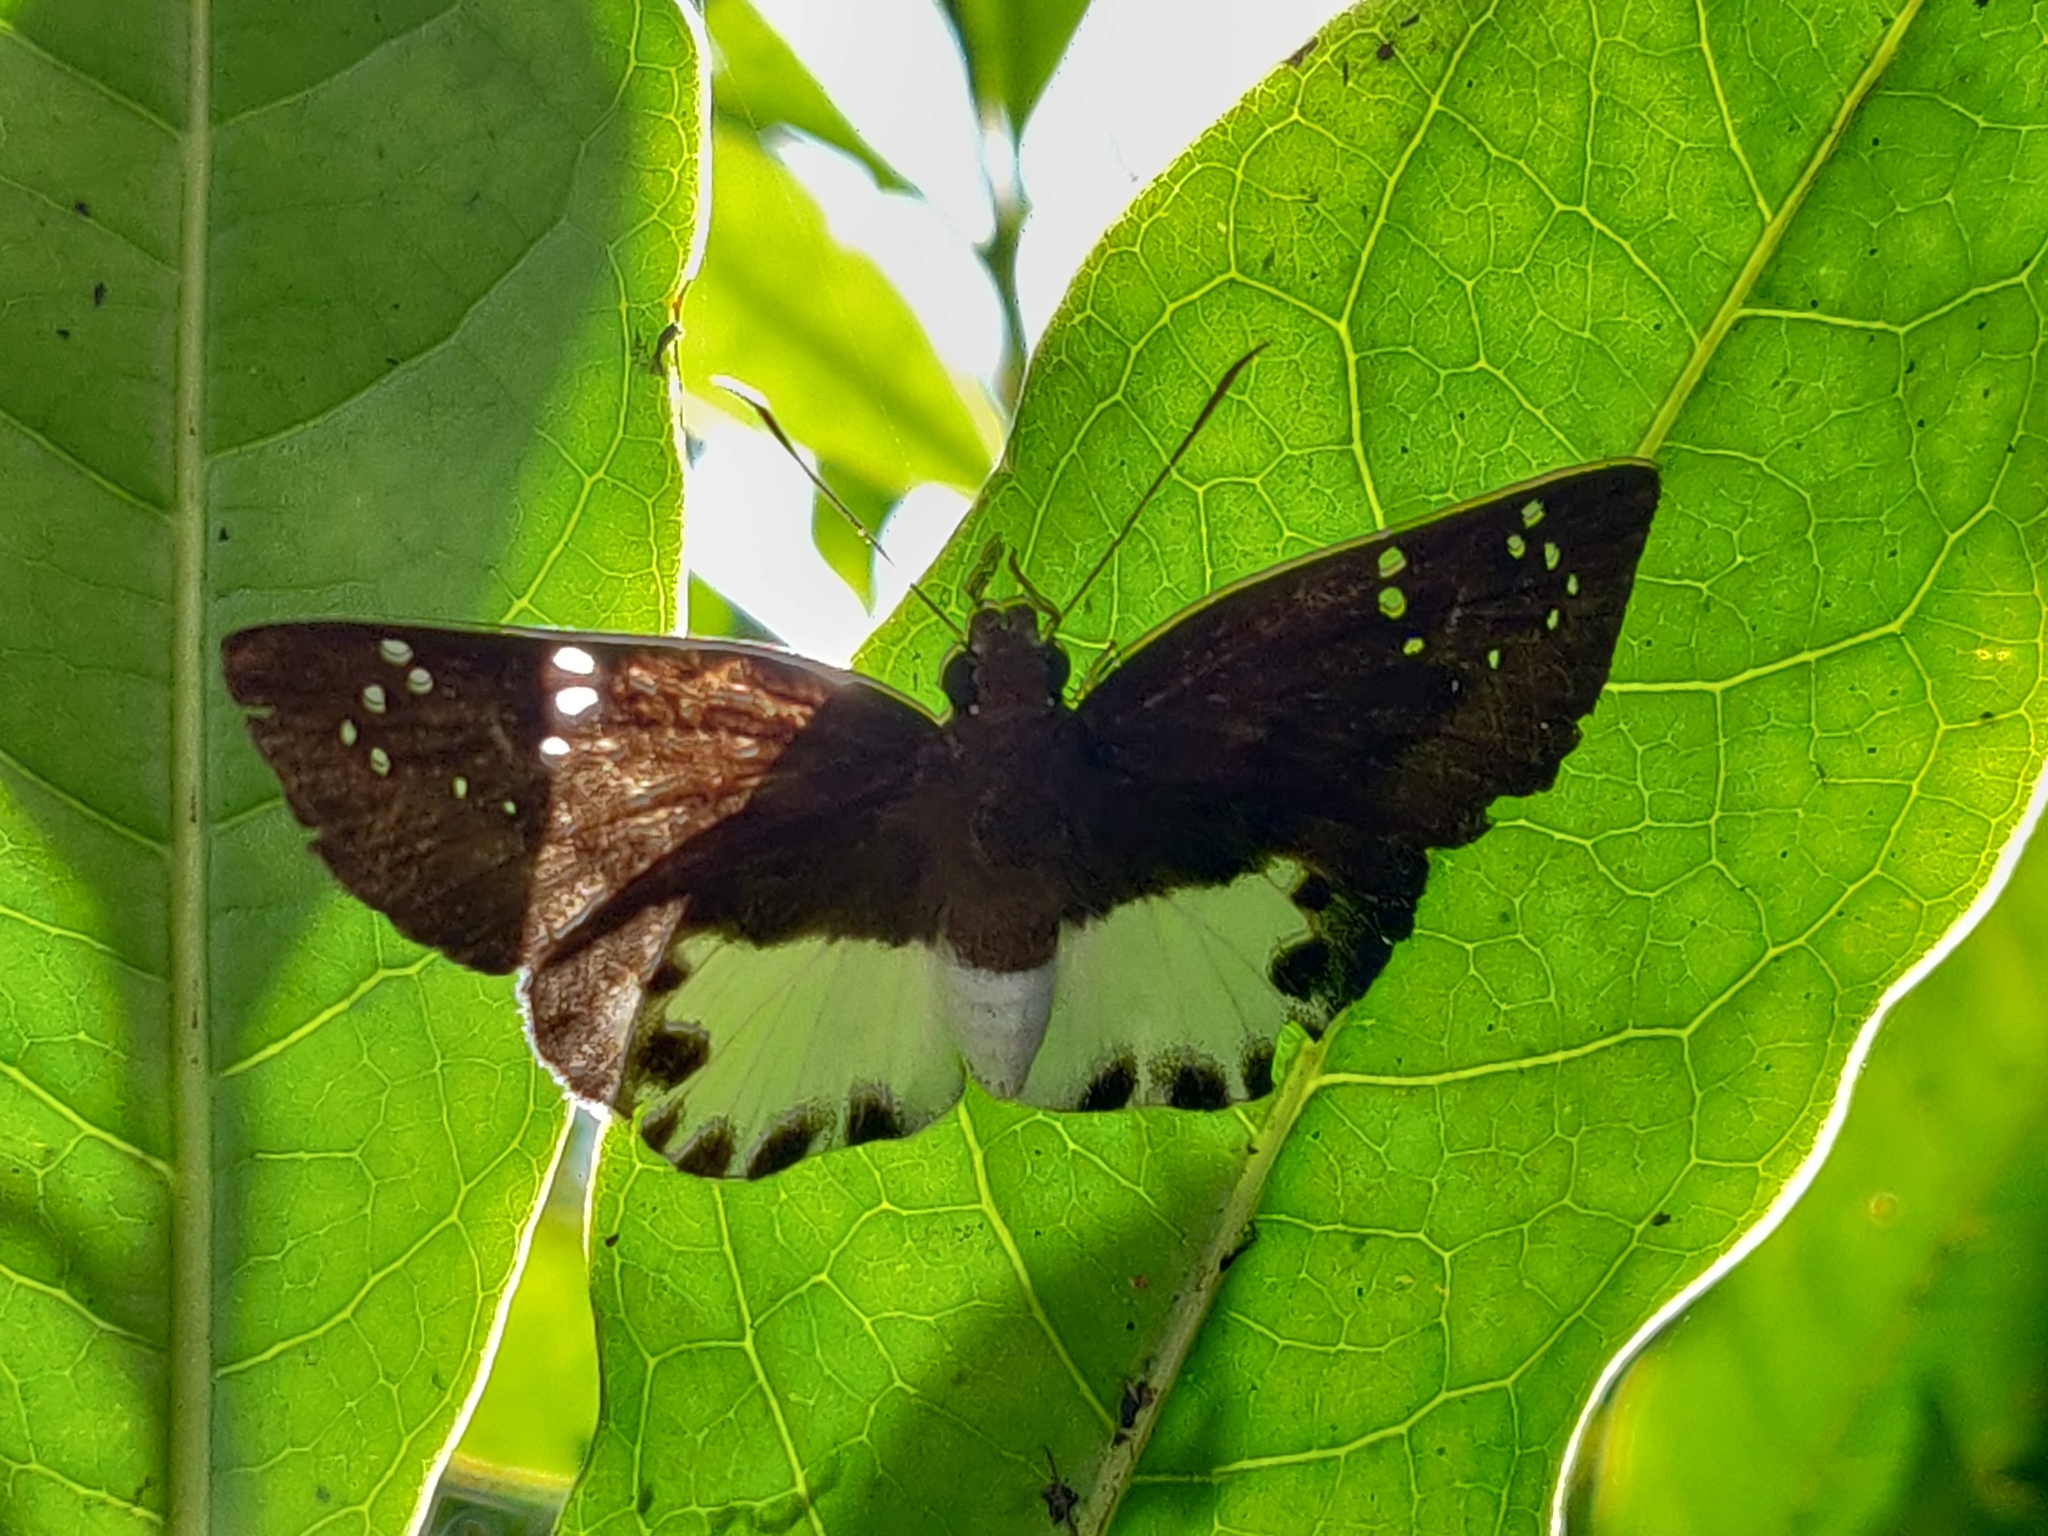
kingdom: Animalia
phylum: Arthropoda
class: Insecta
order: Lepidoptera
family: Hesperiidae
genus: Tagiades
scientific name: Tagiades litigiosa
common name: Water snow flat
